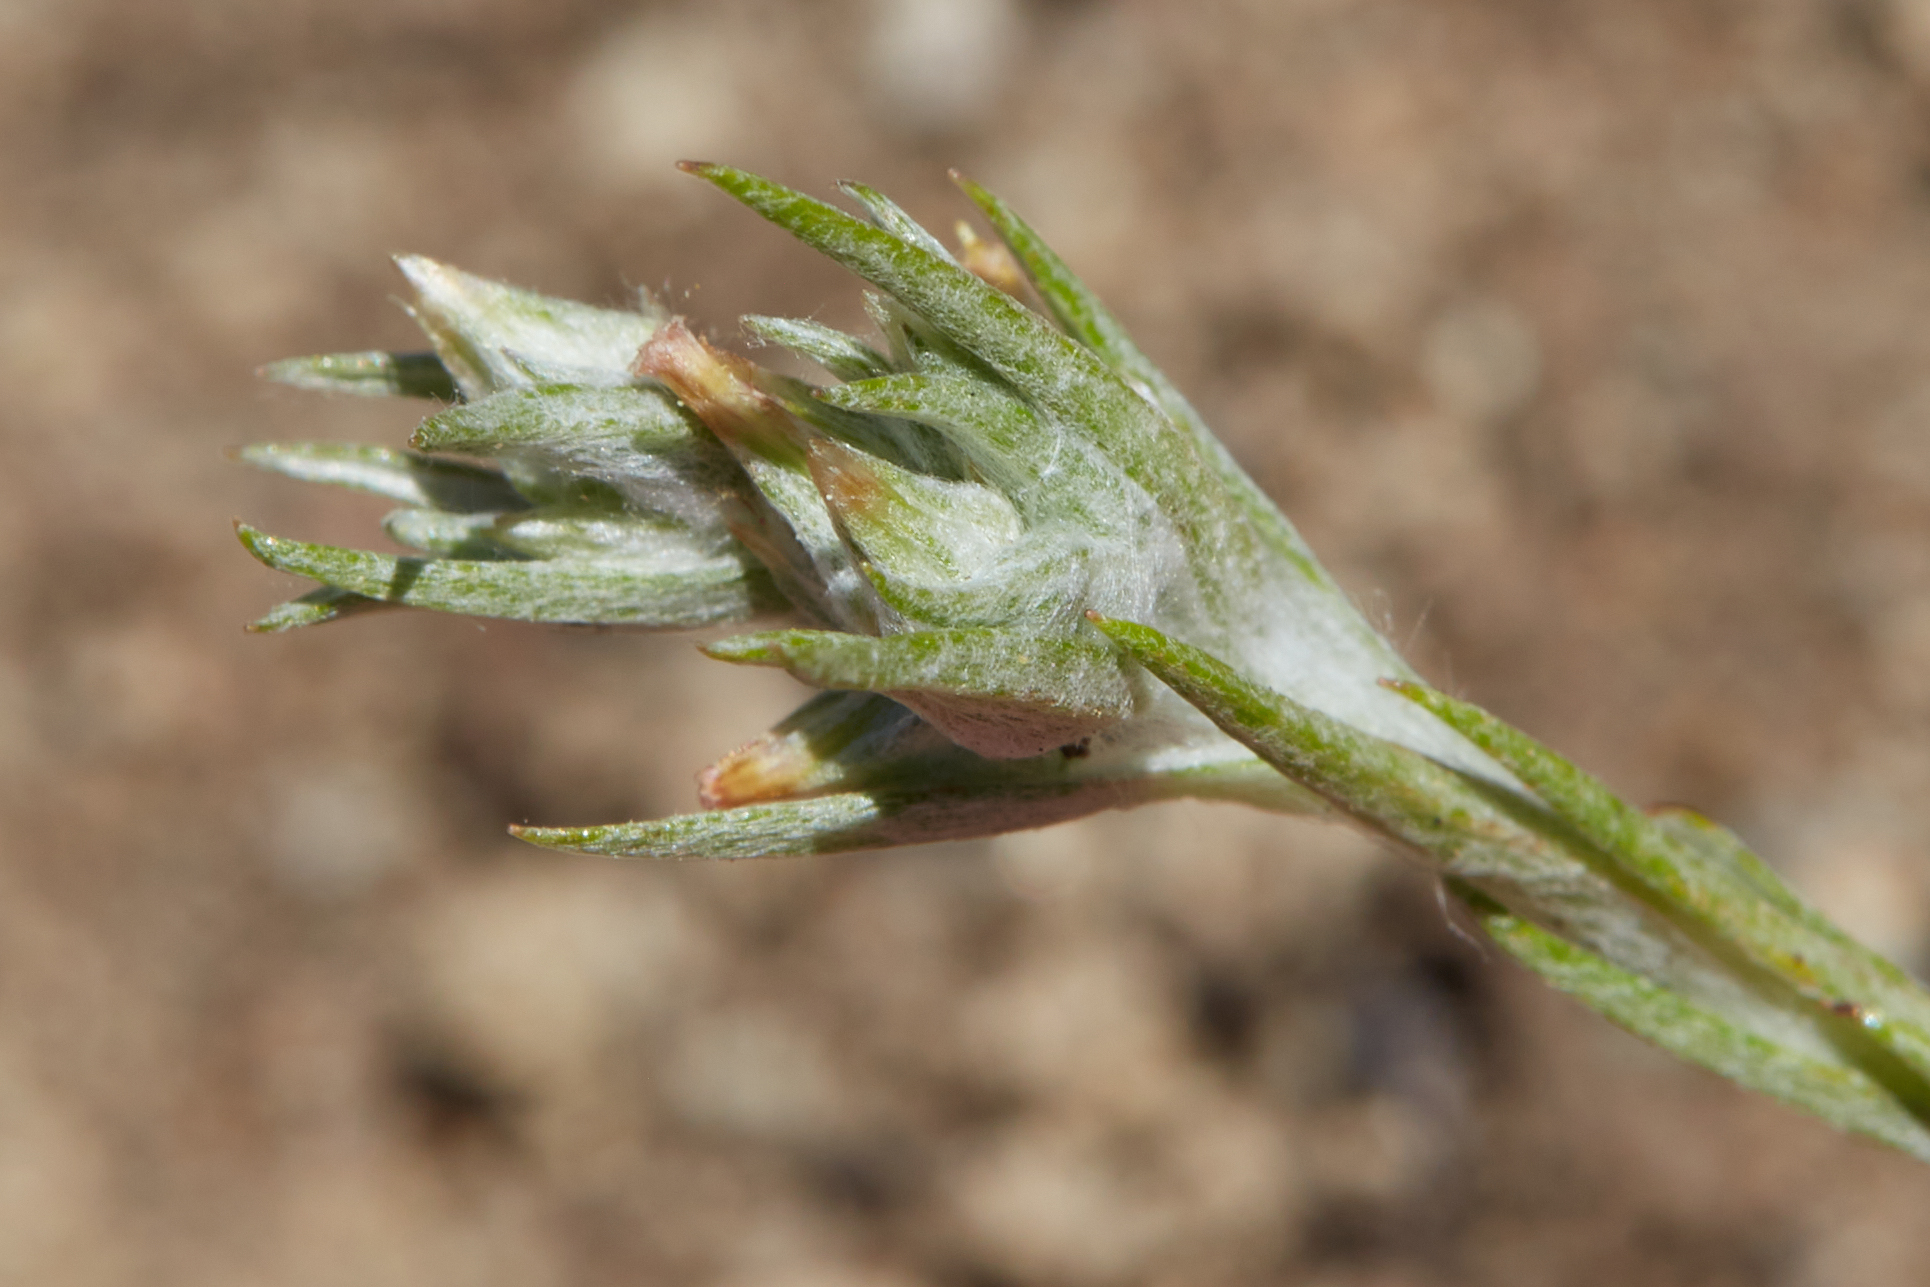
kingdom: Plantae
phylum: Tracheophyta
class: Magnoliopsida
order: Asterales
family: Asteraceae
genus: Logfia
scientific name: Logfia gallica
